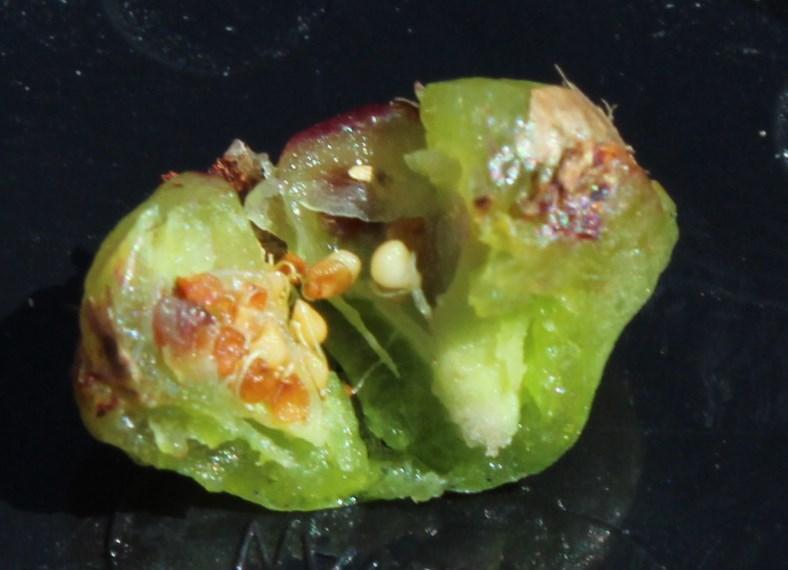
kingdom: Plantae
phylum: Tracheophyta
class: Magnoliopsida
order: Caryophyllales
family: Aizoaceae
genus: Lampranthus
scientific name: Lampranthus bicolor
